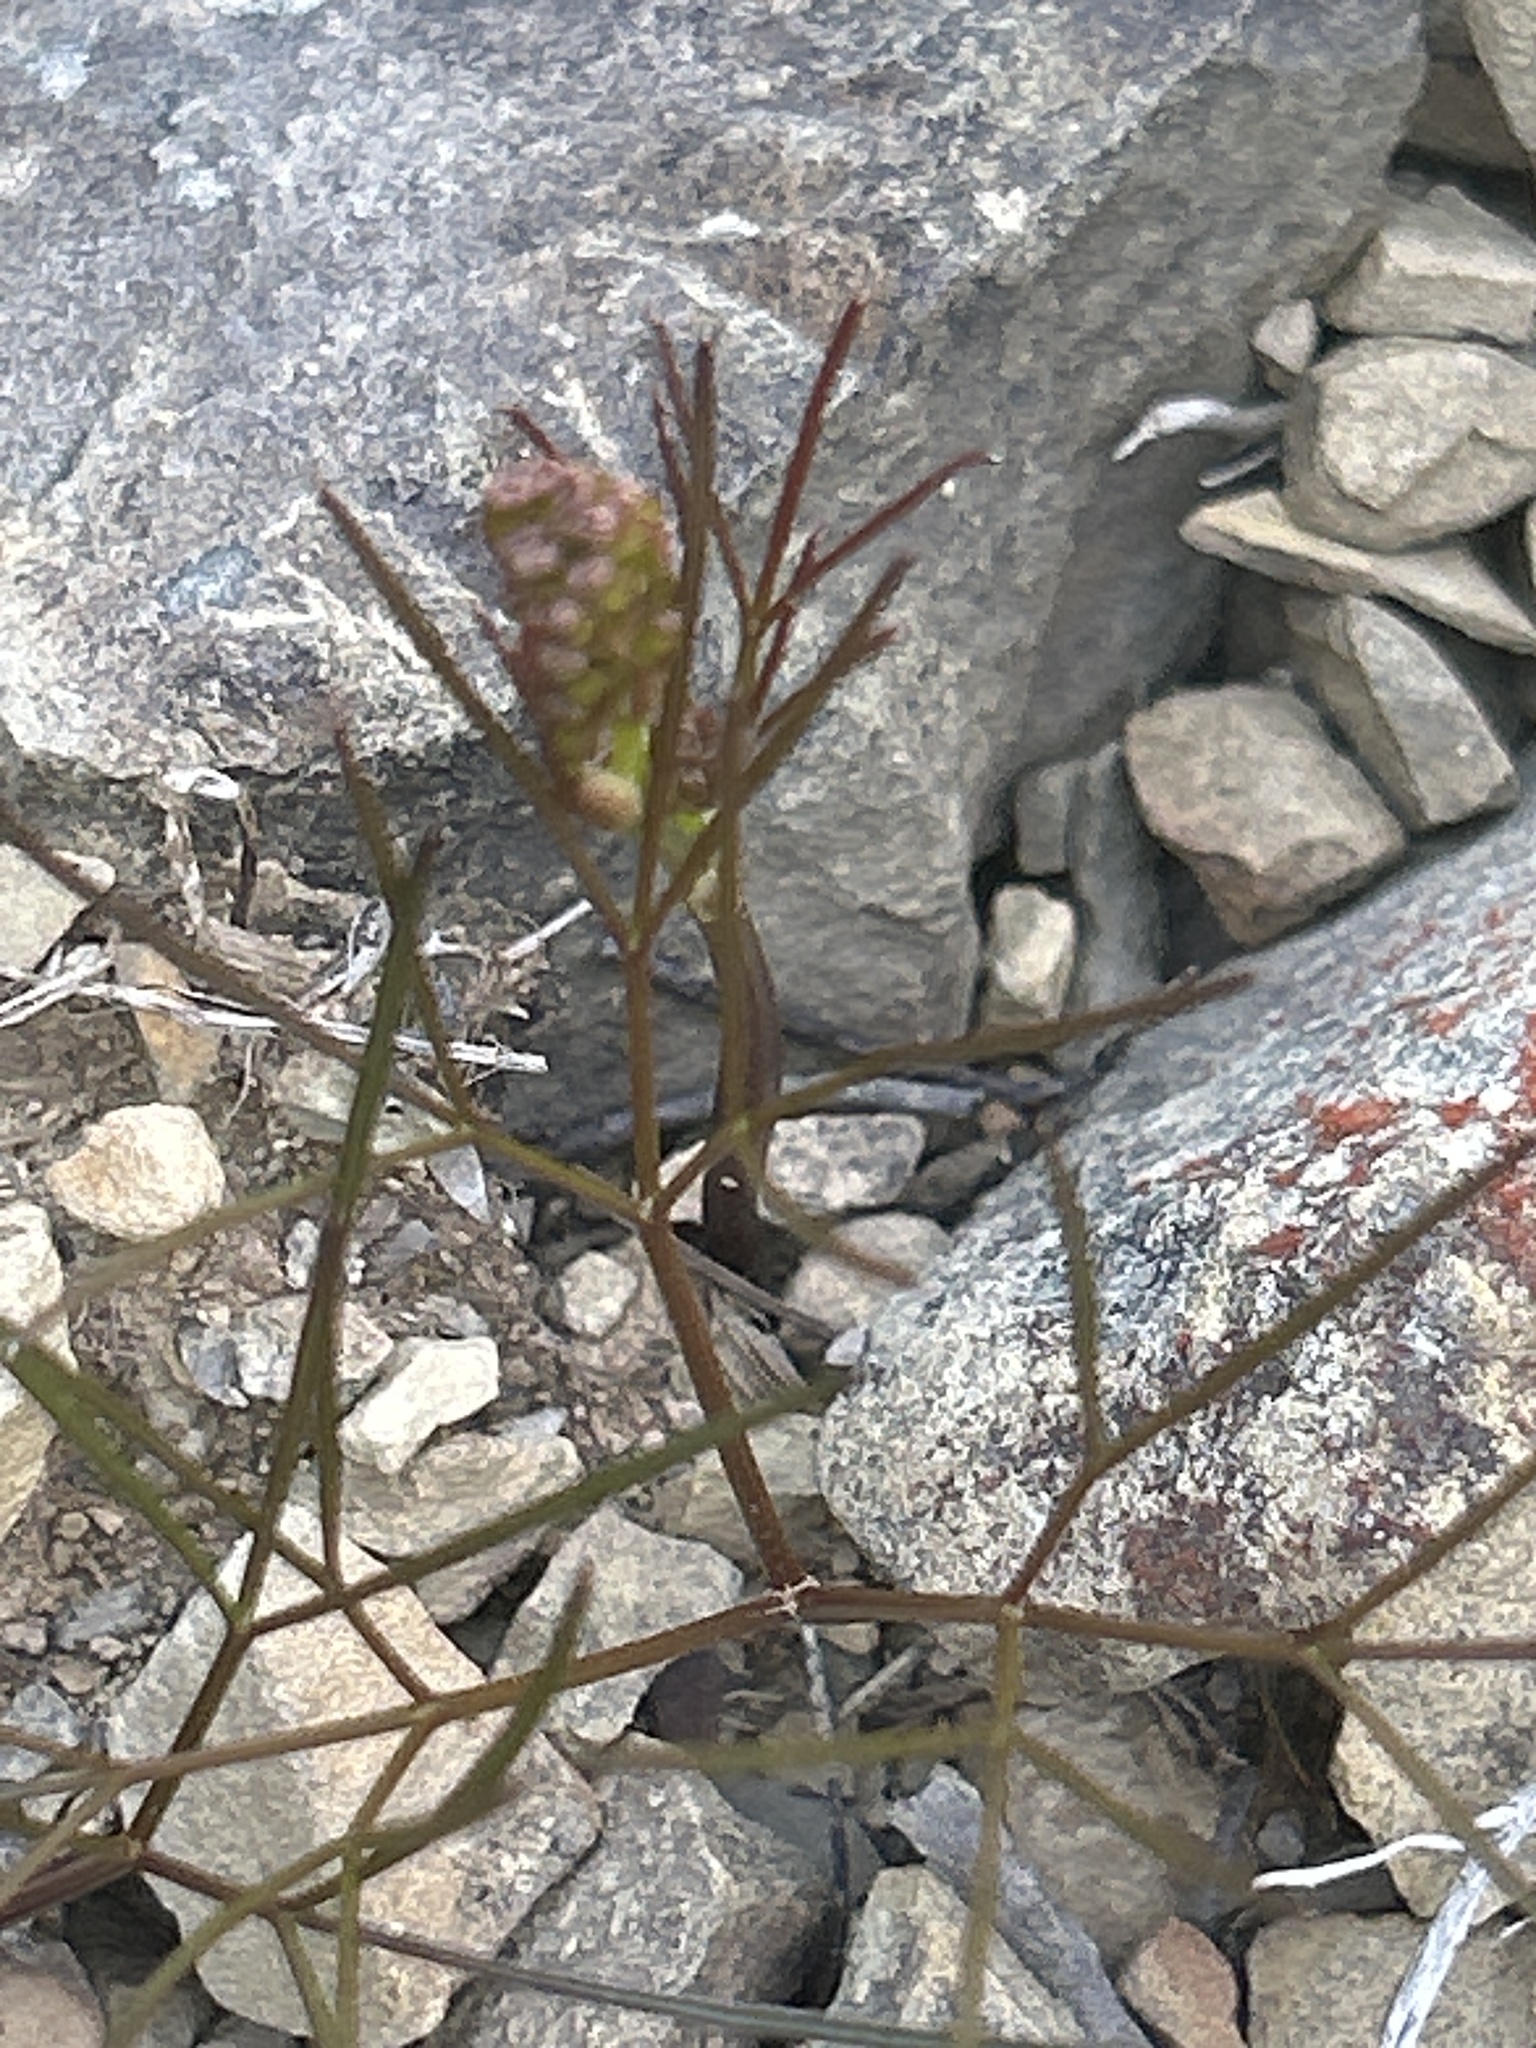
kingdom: Plantae
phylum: Tracheophyta
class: Magnoliopsida
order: Apiales
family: Apiaceae
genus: Anisotome
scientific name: Anisotome filifolia
